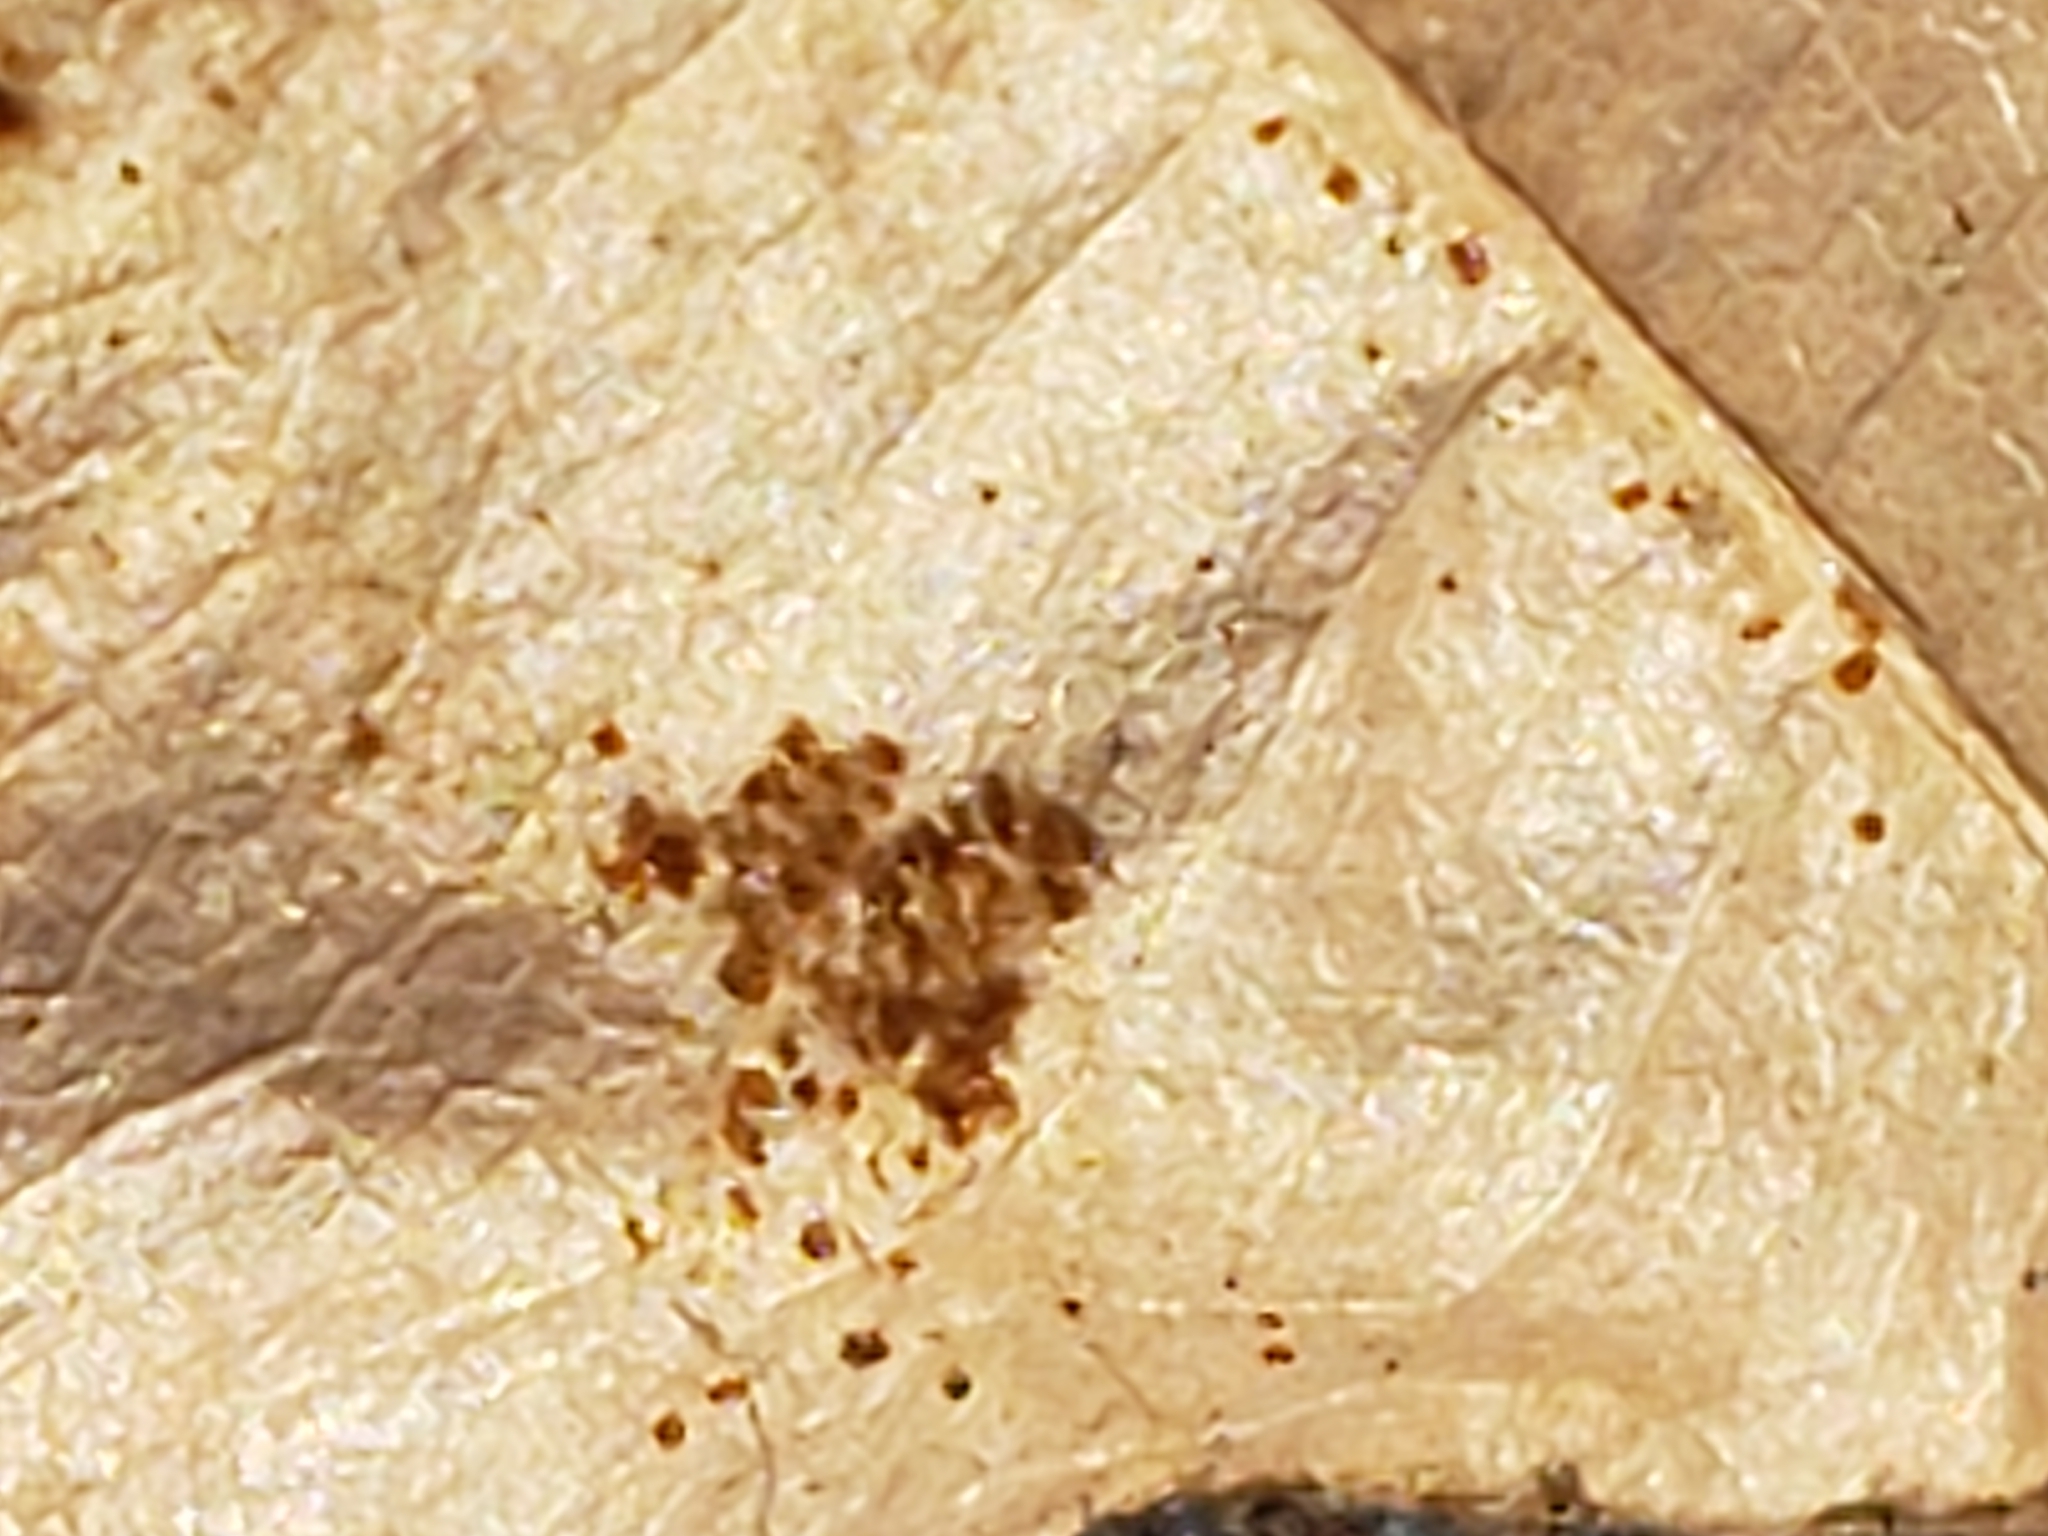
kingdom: Animalia
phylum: Arthropoda
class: Arachnida
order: Trombidiformes
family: Eriophyidae
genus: Acalitus
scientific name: Acalitus
